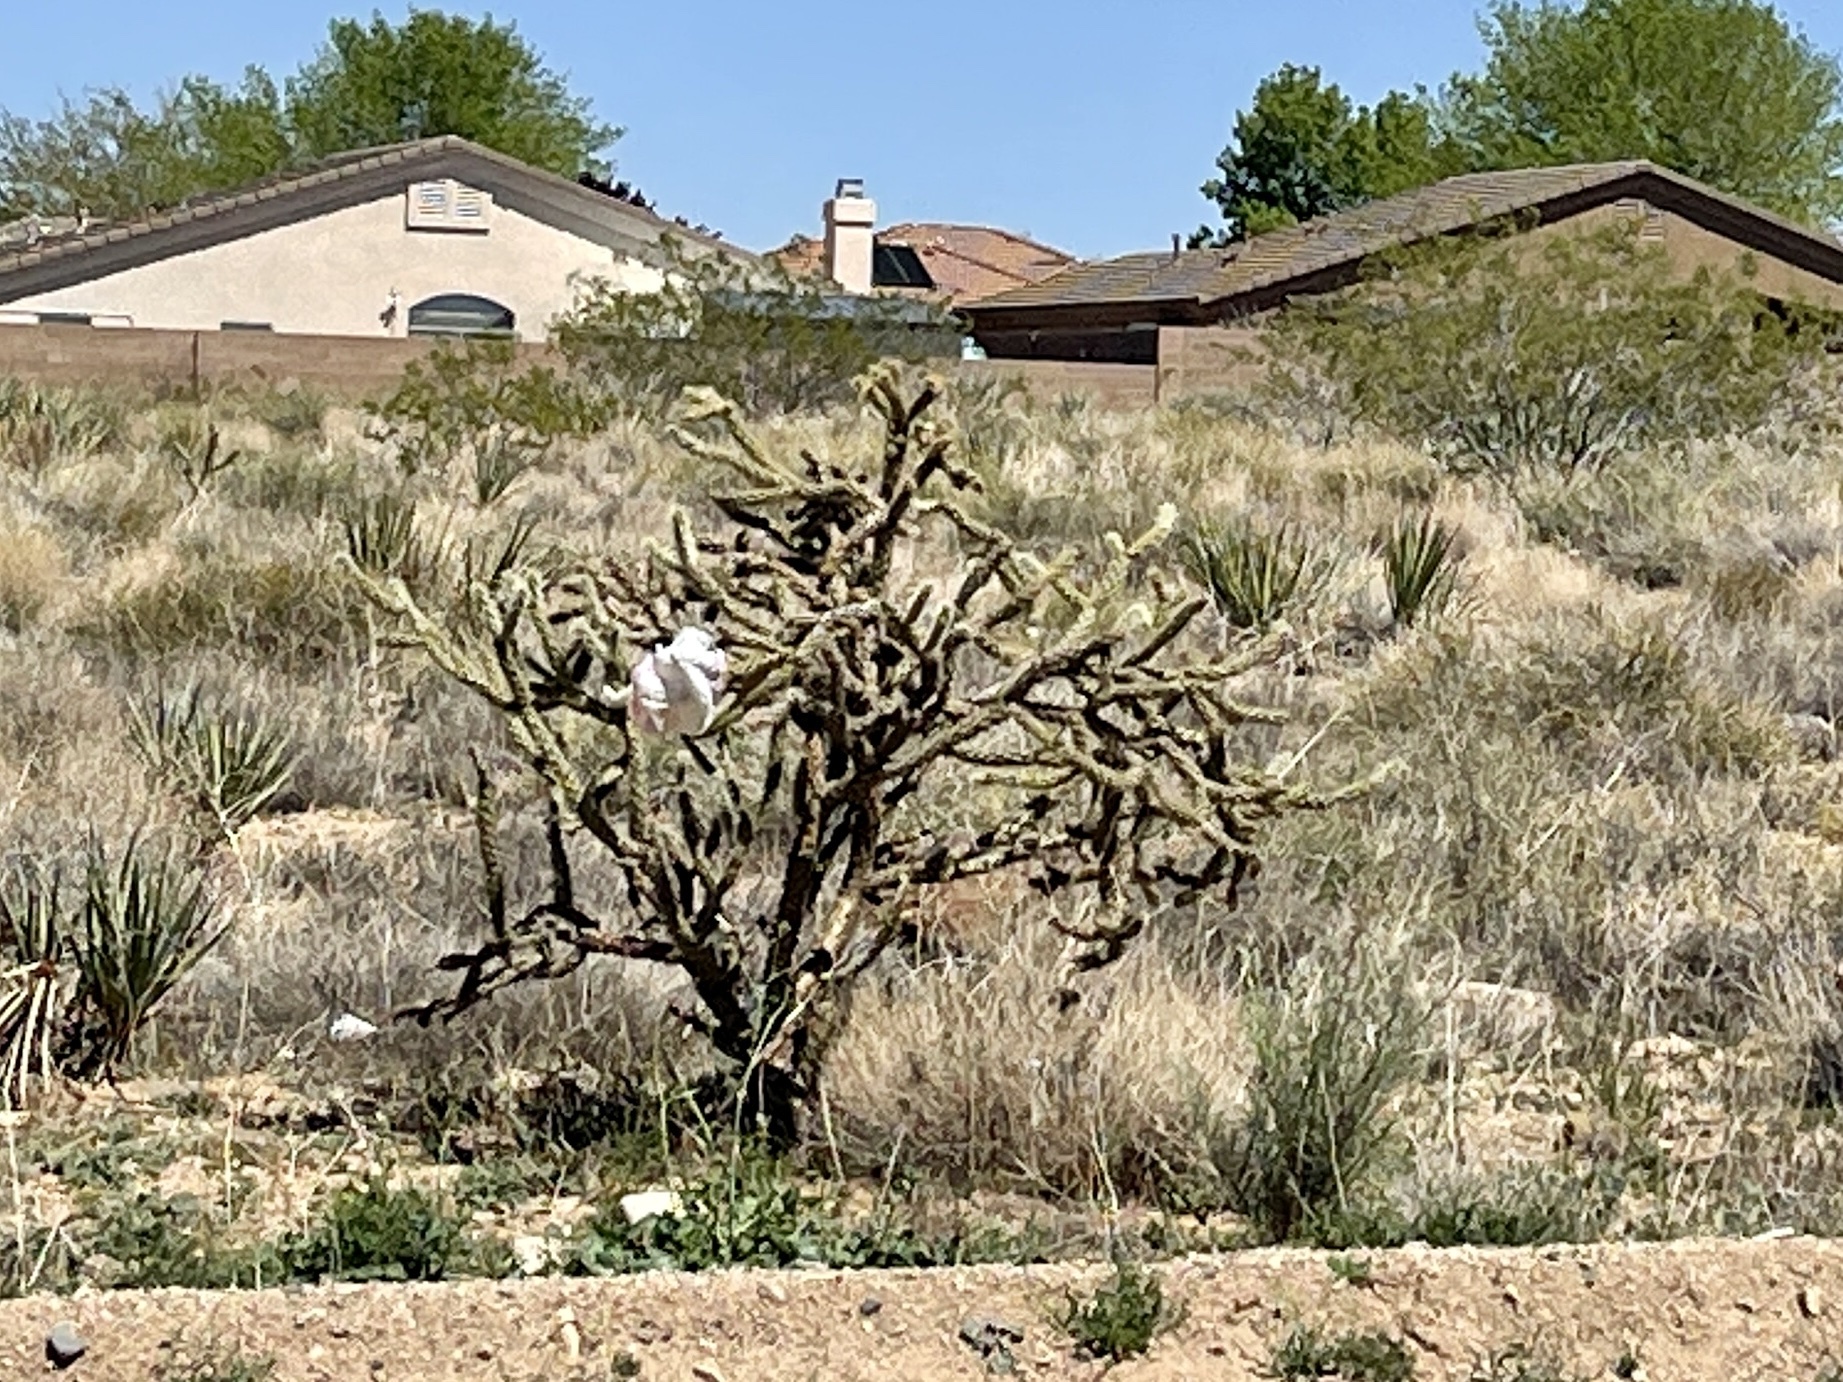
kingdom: Plantae
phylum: Tracheophyta
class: Magnoliopsida
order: Caryophyllales
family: Cactaceae
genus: Cylindropuntia
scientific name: Cylindropuntia acanthocarpa
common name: Buckhorn cholla
